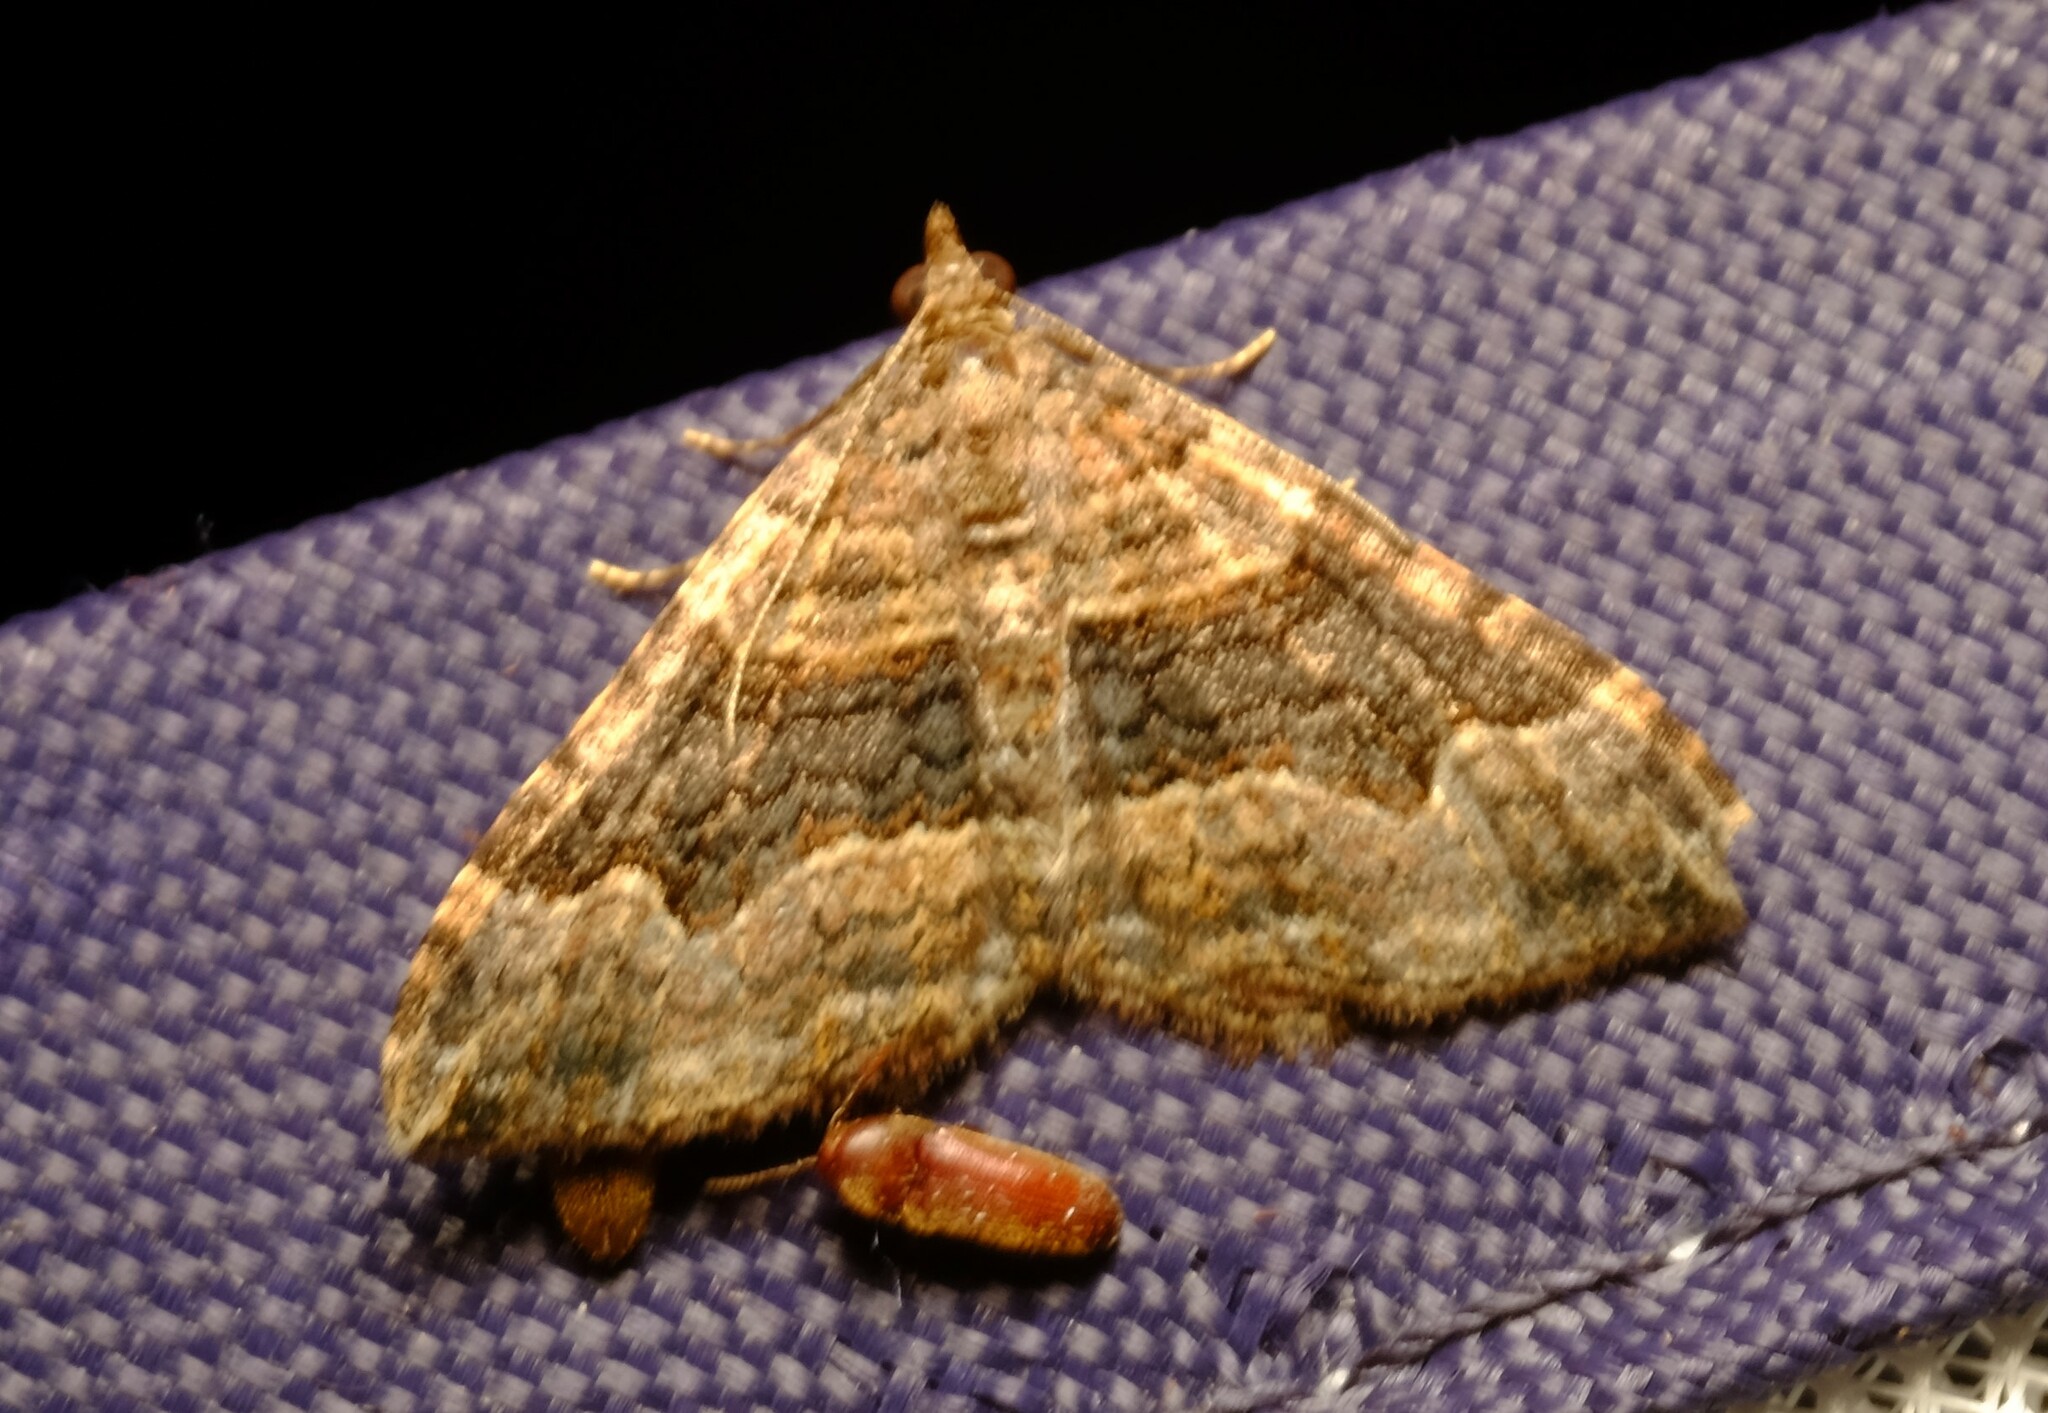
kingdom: Animalia
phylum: Arthropoda
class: Insecta
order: Lepidoptera
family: Geometridae
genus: Epyaxa
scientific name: Epyaxa subidaria
